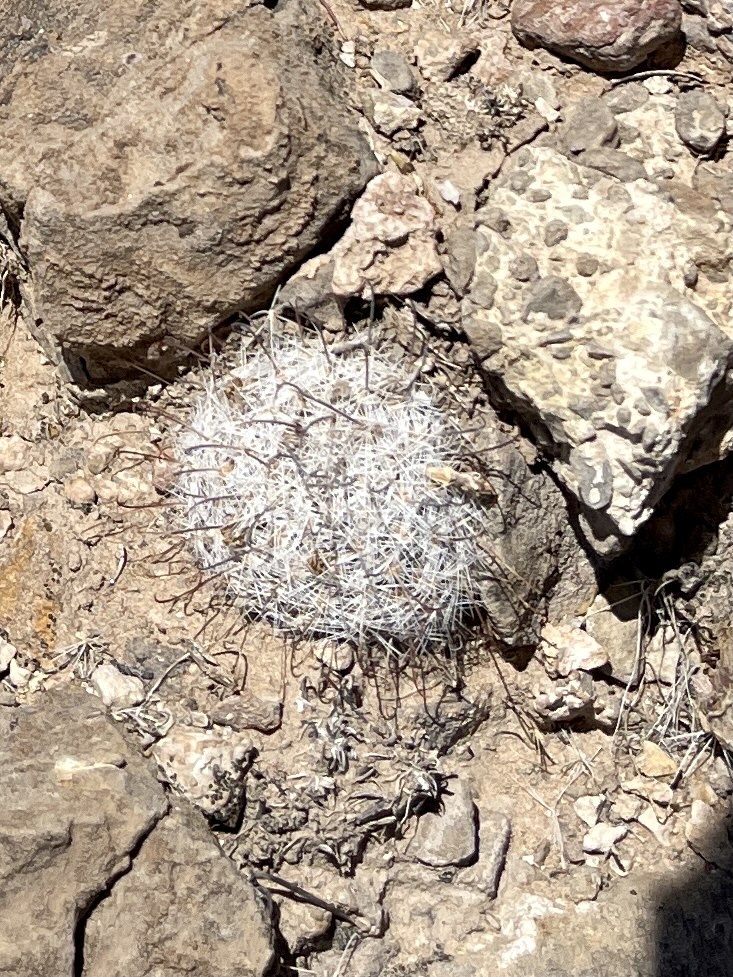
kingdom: Plantae
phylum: Tracheophyta
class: Magnoliopsida
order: Caryophyllales
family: Cactaceae
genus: Cochemiea
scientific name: Cochemiea grahamii
